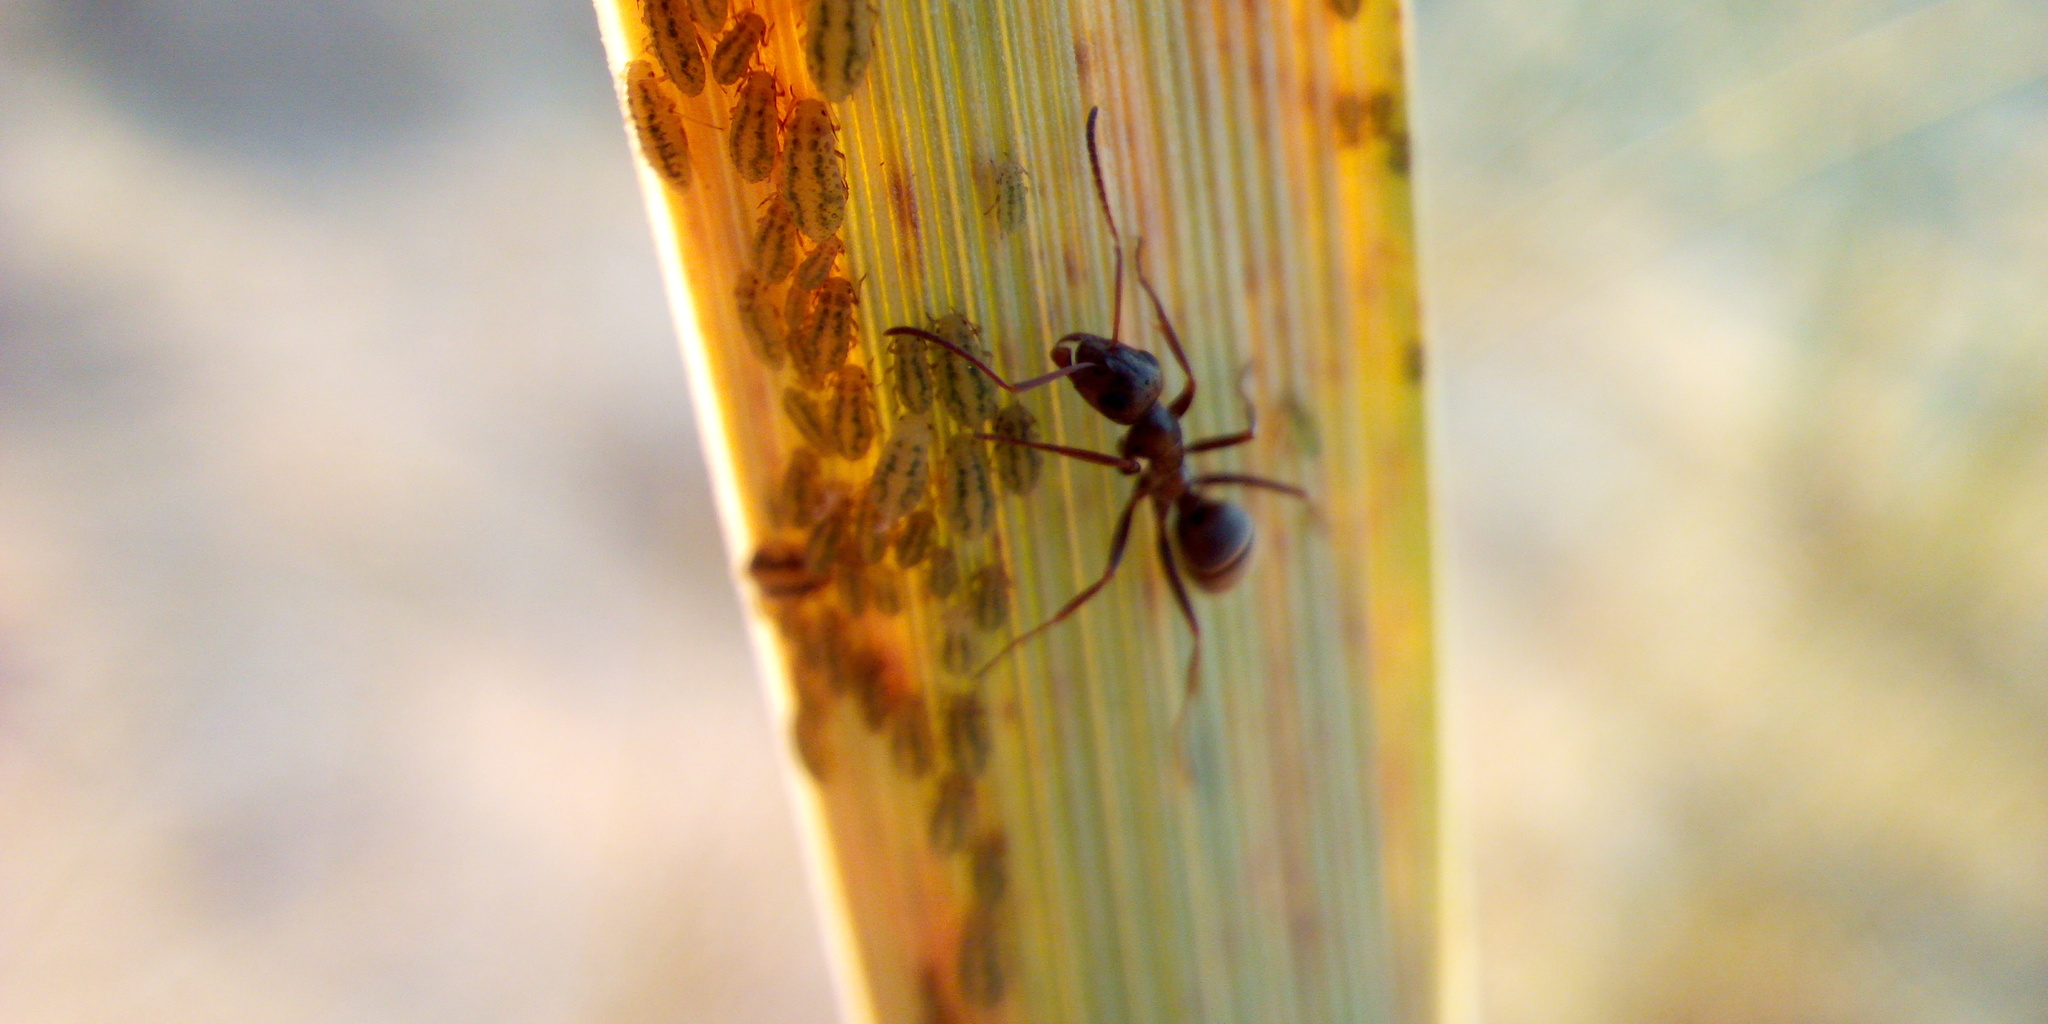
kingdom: Animalia
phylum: Arthropoda
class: Insecta
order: Hymenoptera
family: Formicidae
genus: Formica
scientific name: Formica
